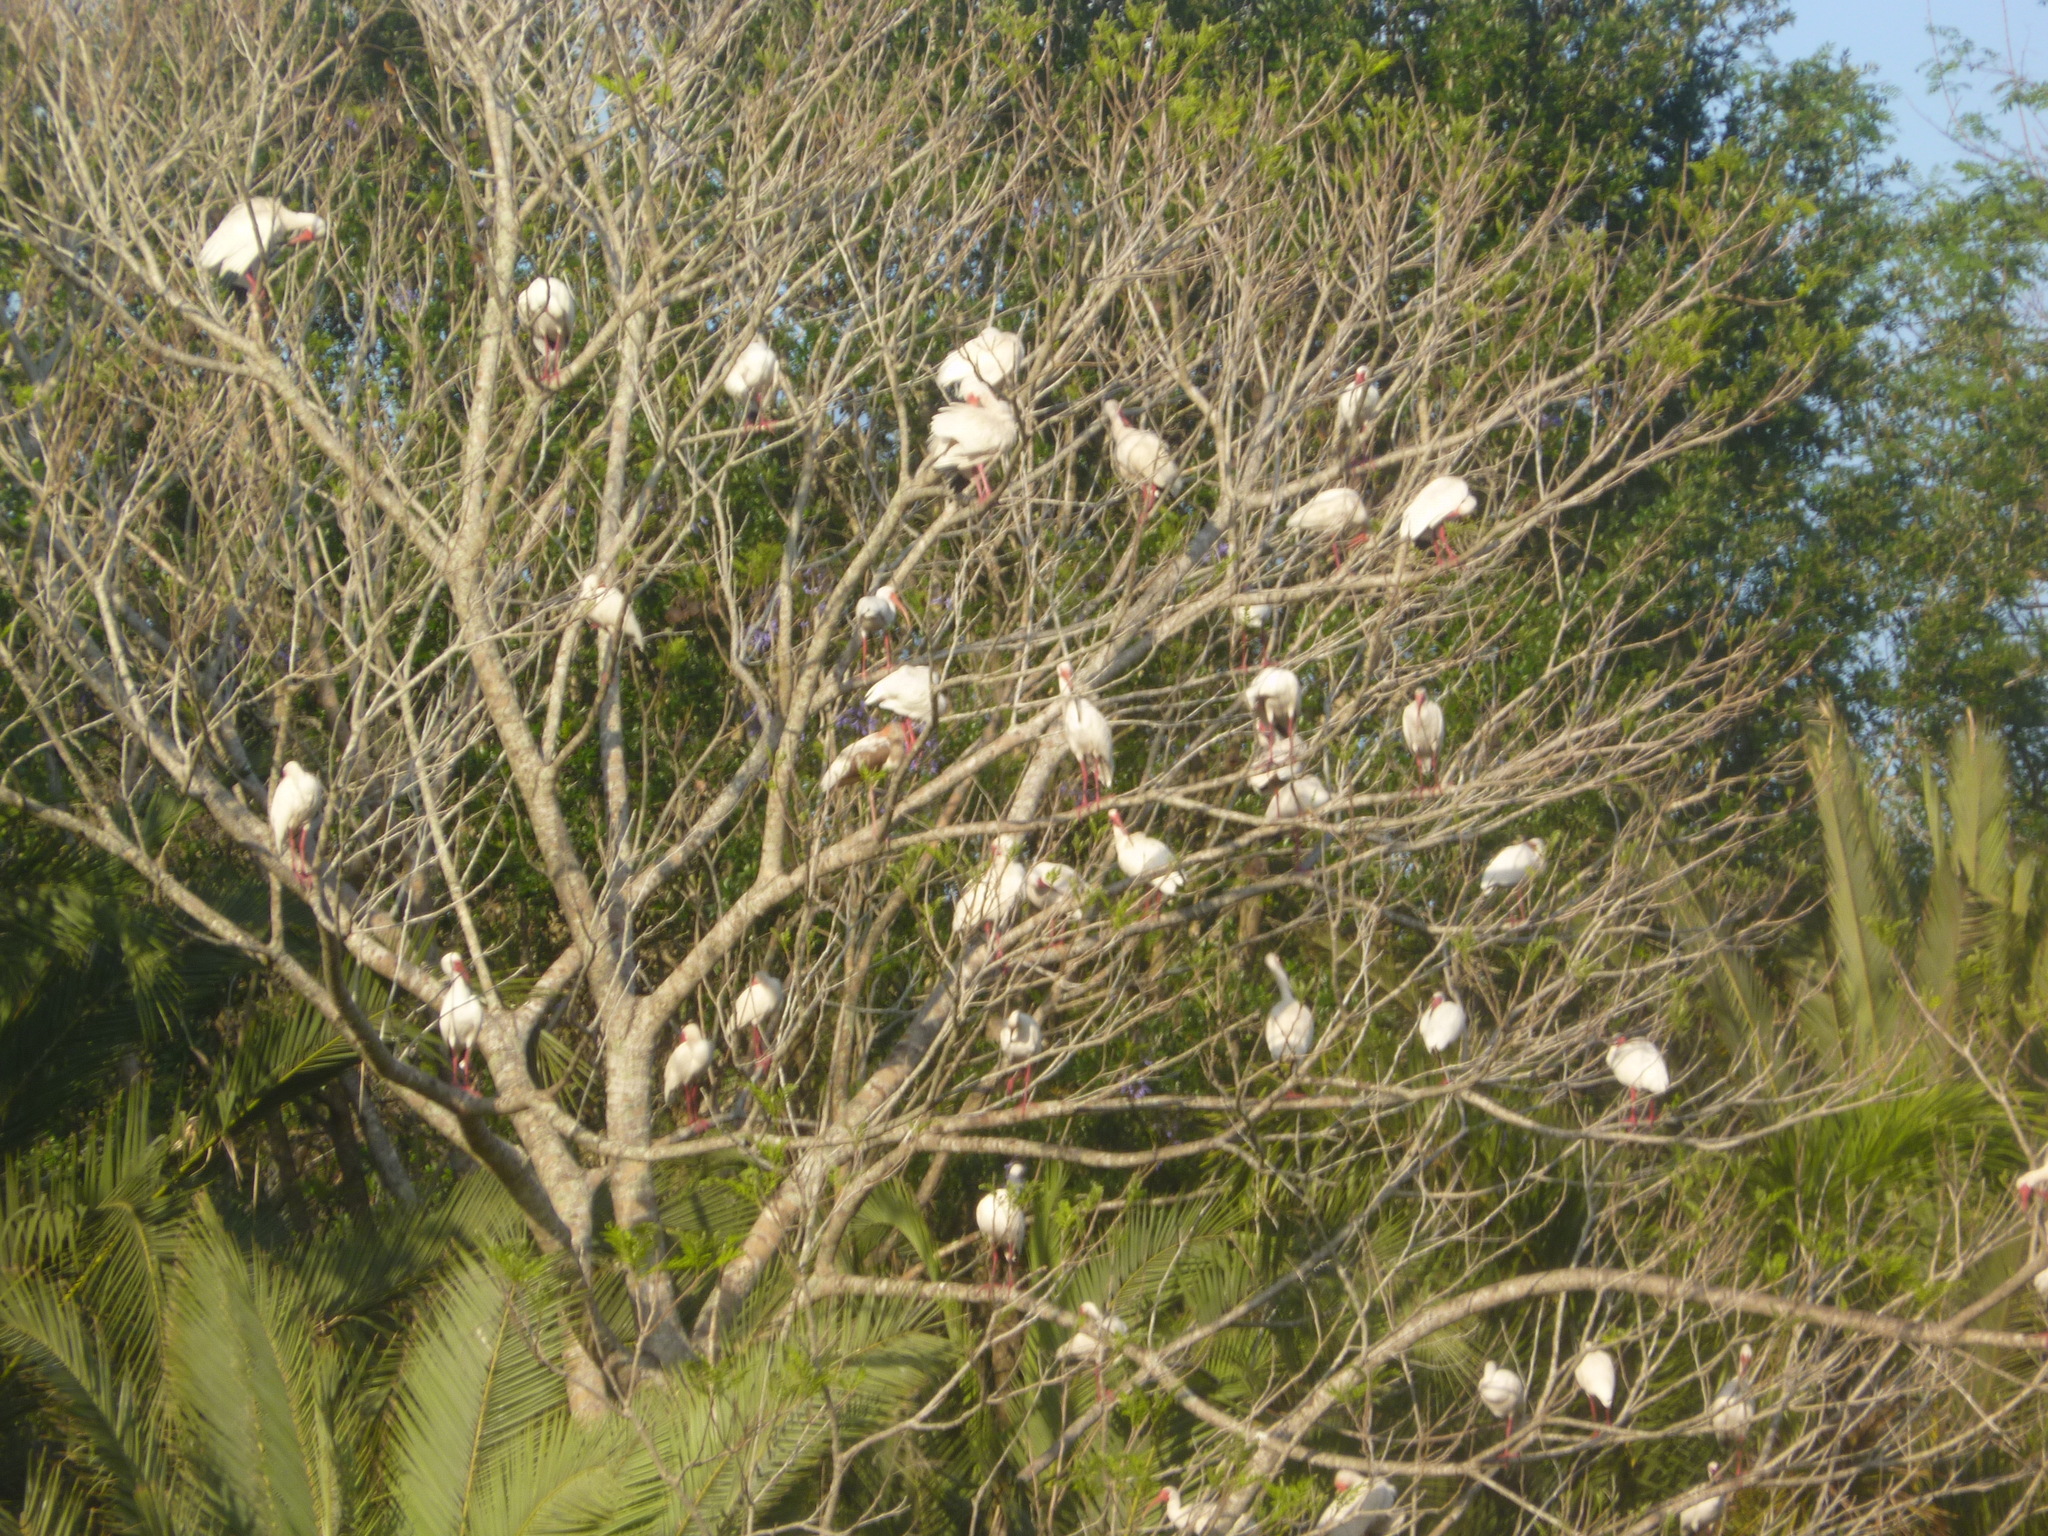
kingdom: Animalia
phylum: Chordata
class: Aves
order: Pelecaniformes
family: Threskiornithidae
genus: Eudocimus
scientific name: Eudocimus albus
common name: White ibis
